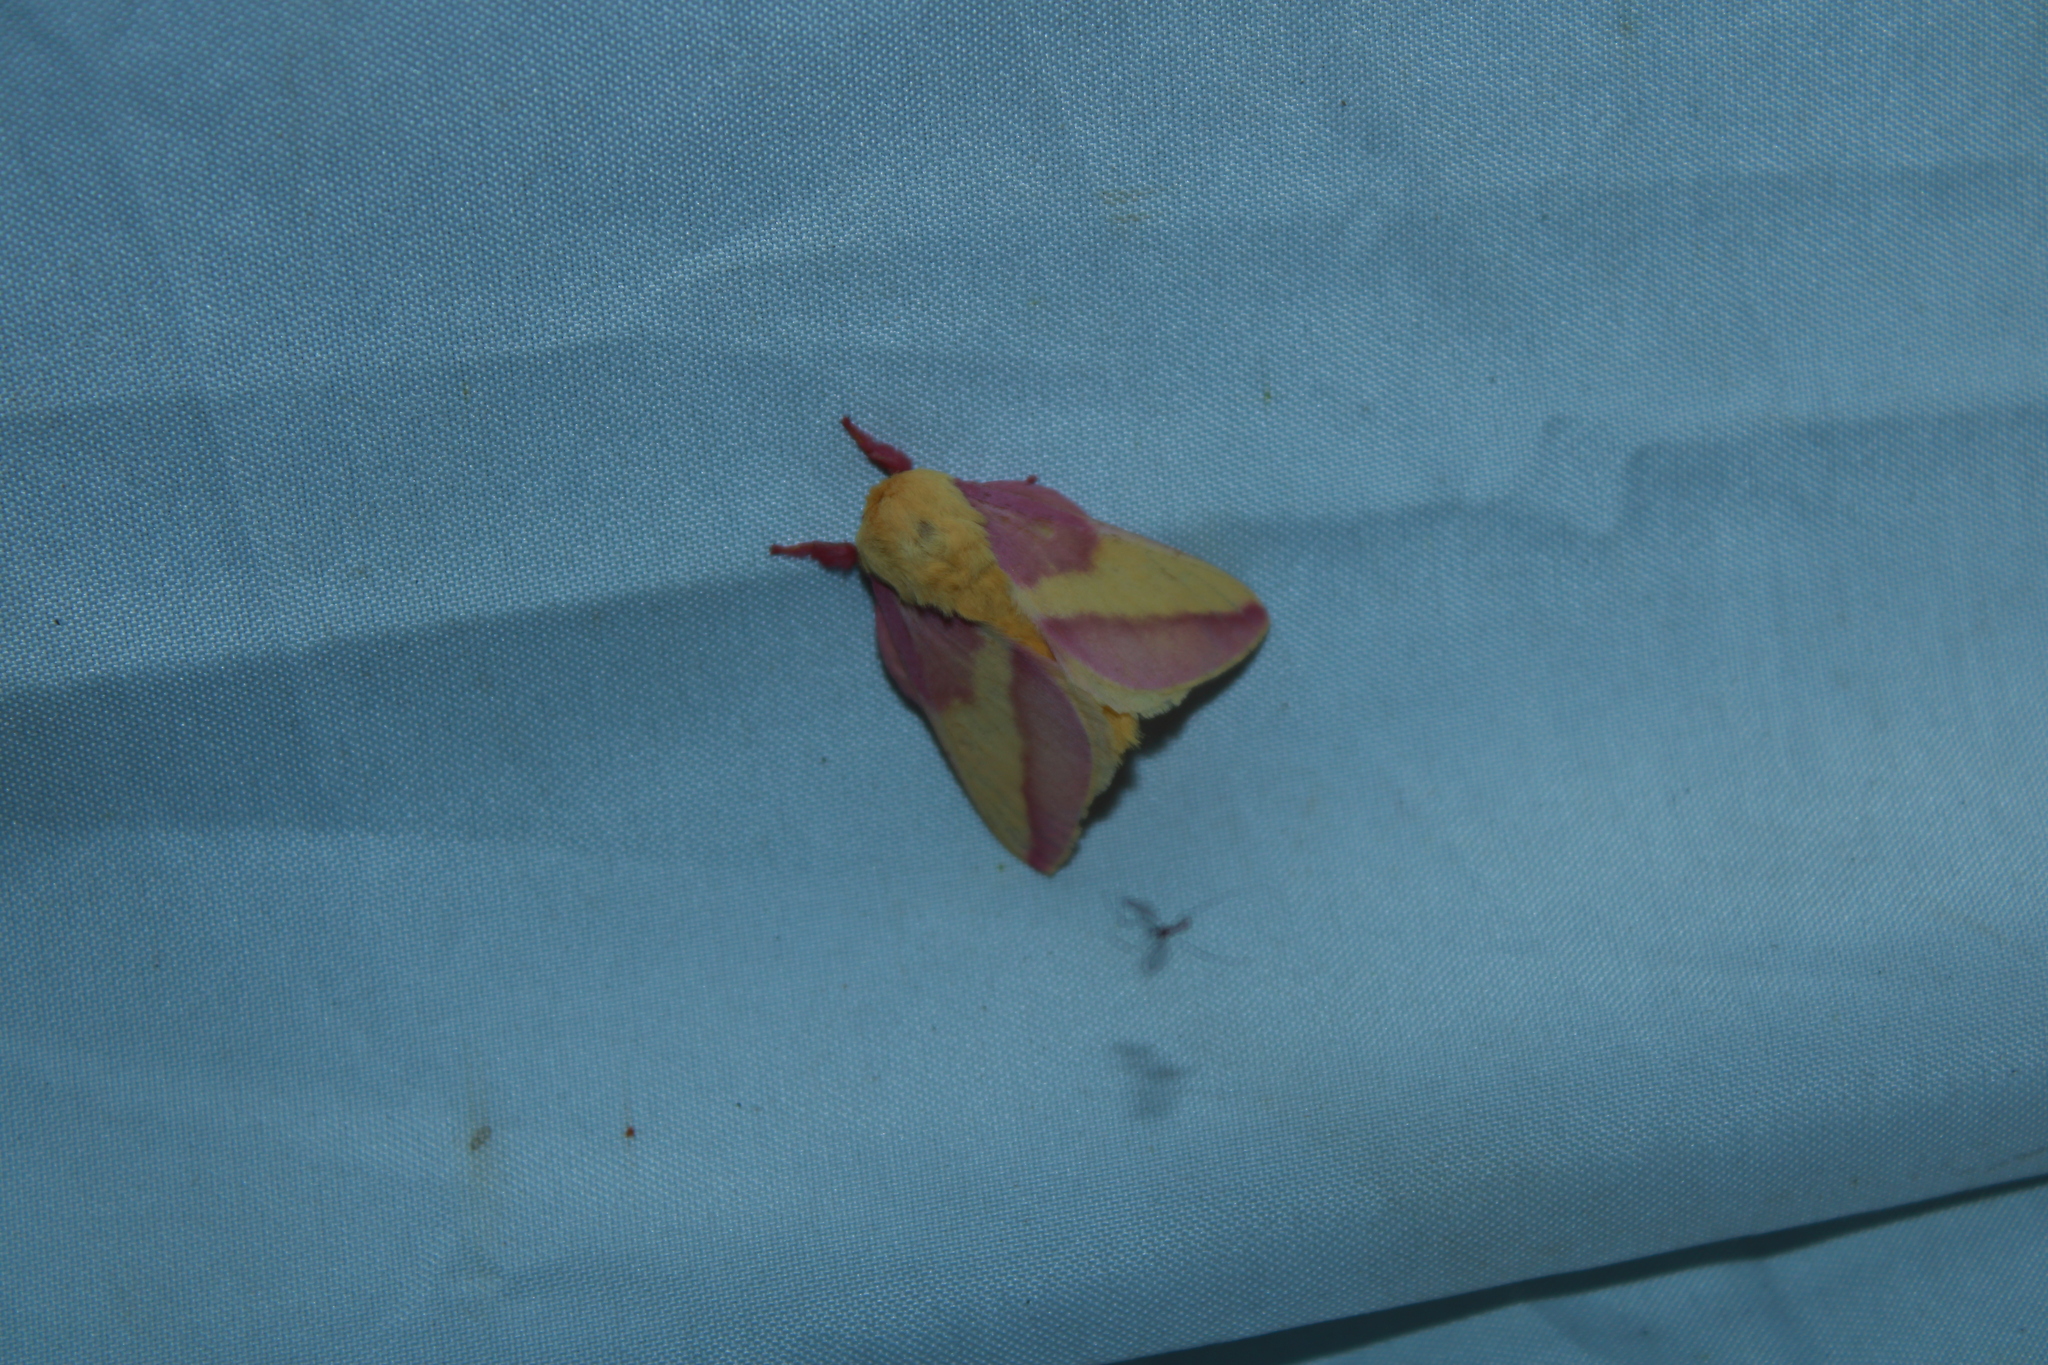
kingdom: Animalia
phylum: Arthropoda
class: Insecta
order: Lepidoptera
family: Saturniidae
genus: Dryocampa
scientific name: Dryocampa rubicunda
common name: Rosy maple moth
